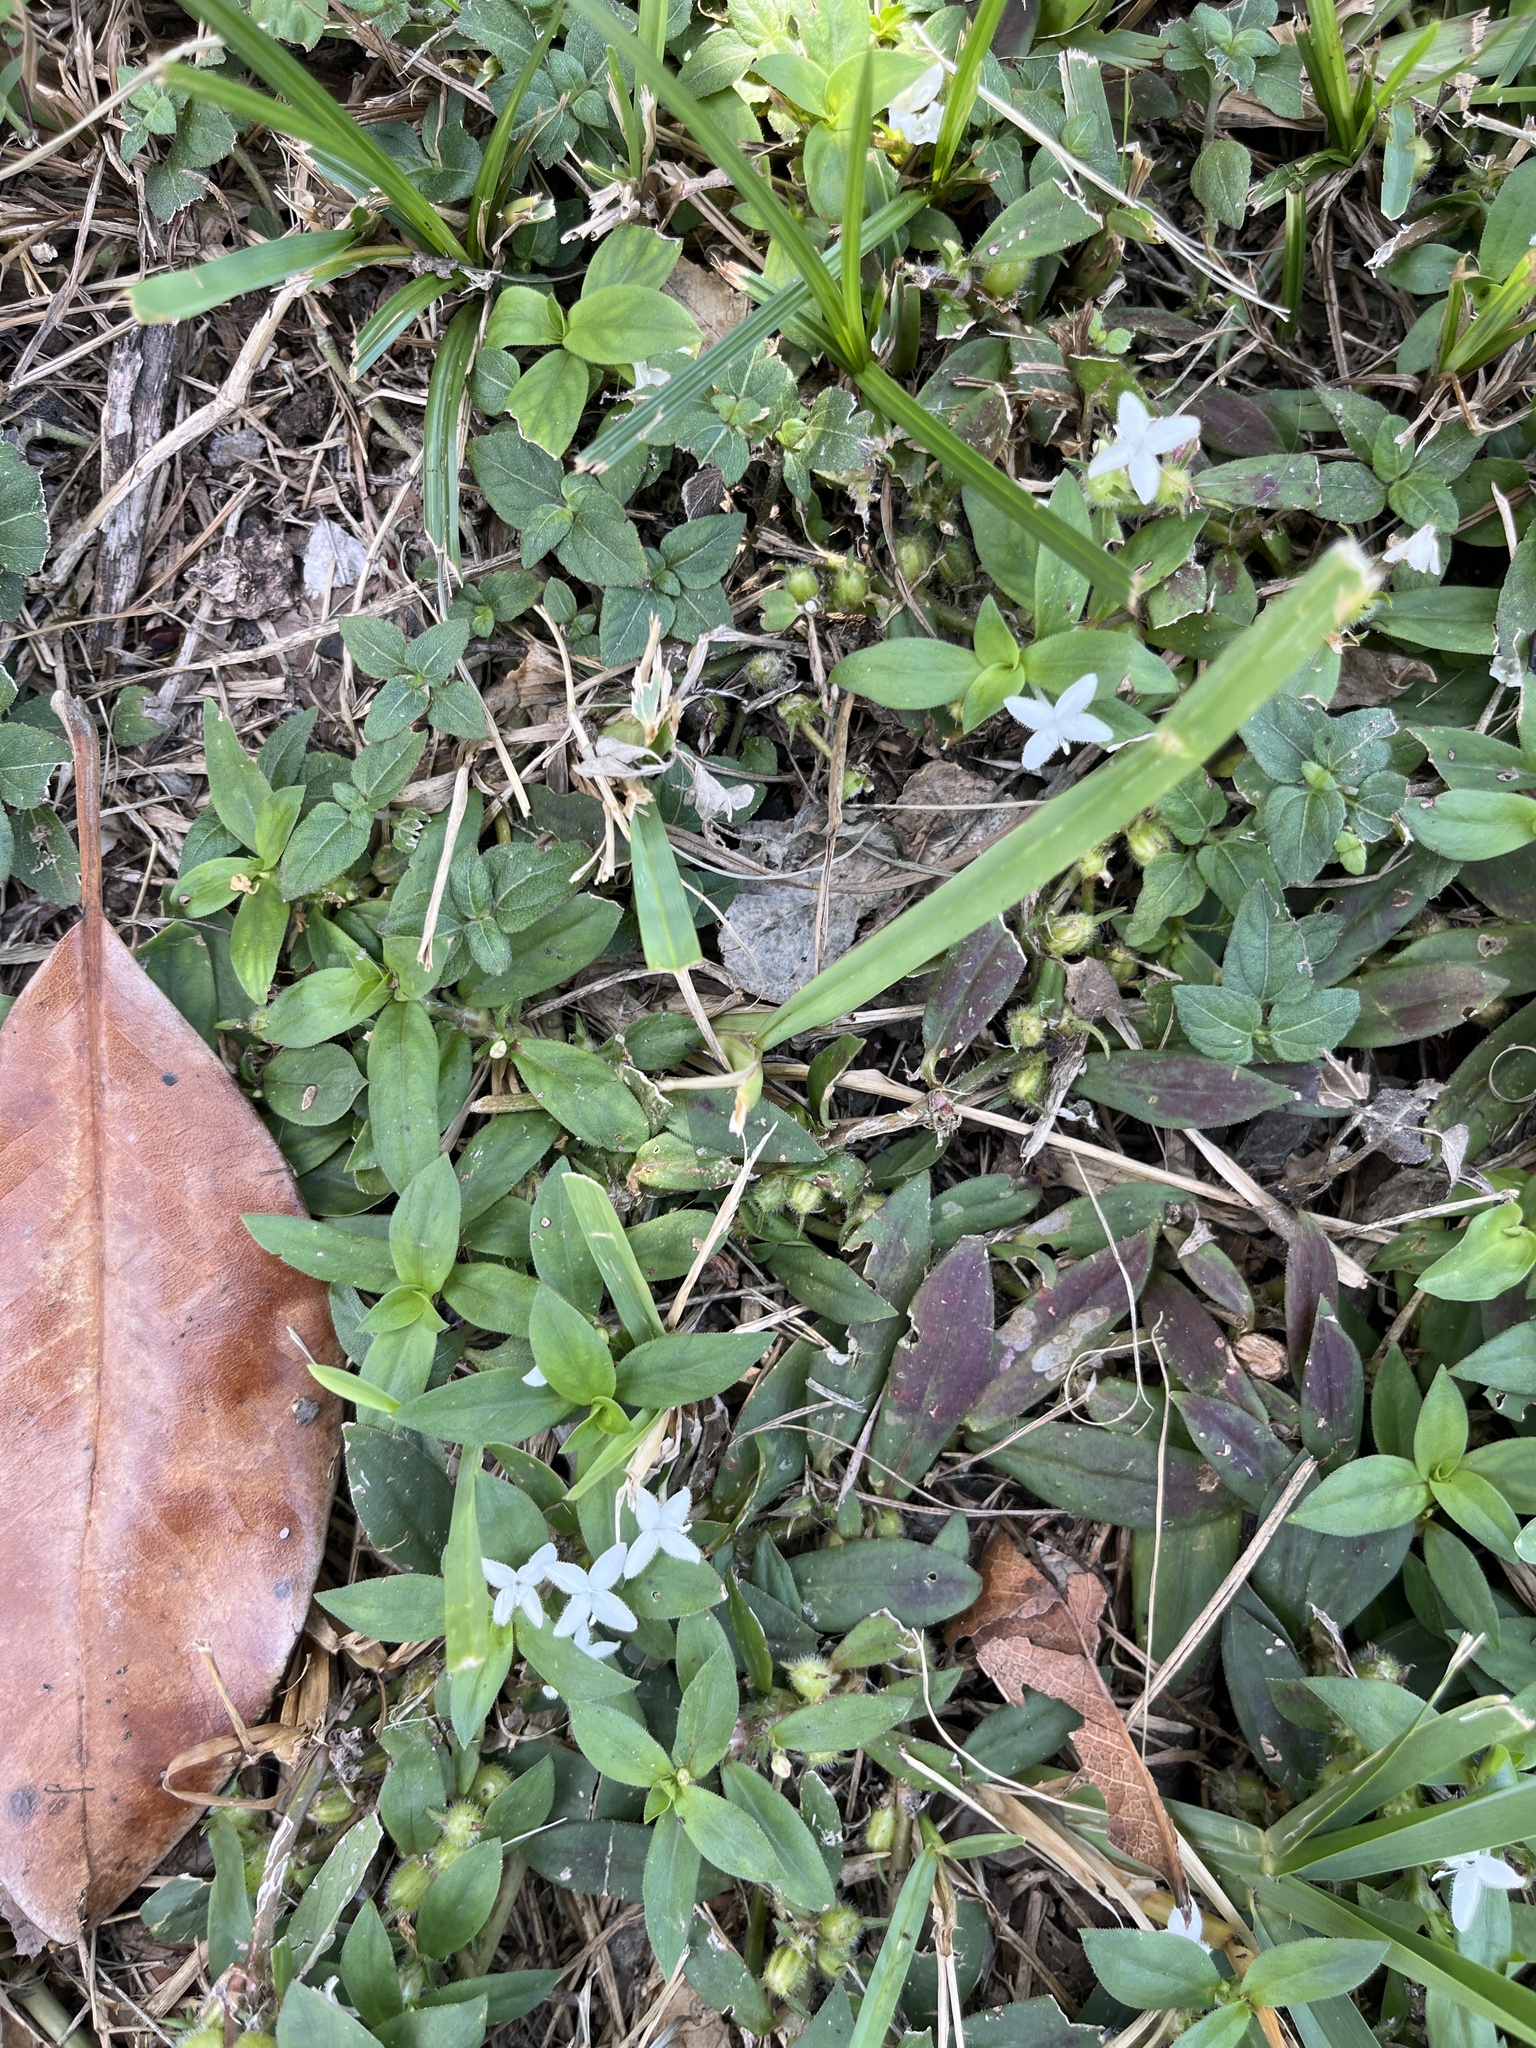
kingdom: Plantae
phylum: Tracheophyta
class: Magnoliopsida
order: Gentianales
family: Rubiaceae
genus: Diodia
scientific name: Diodia virginiana
